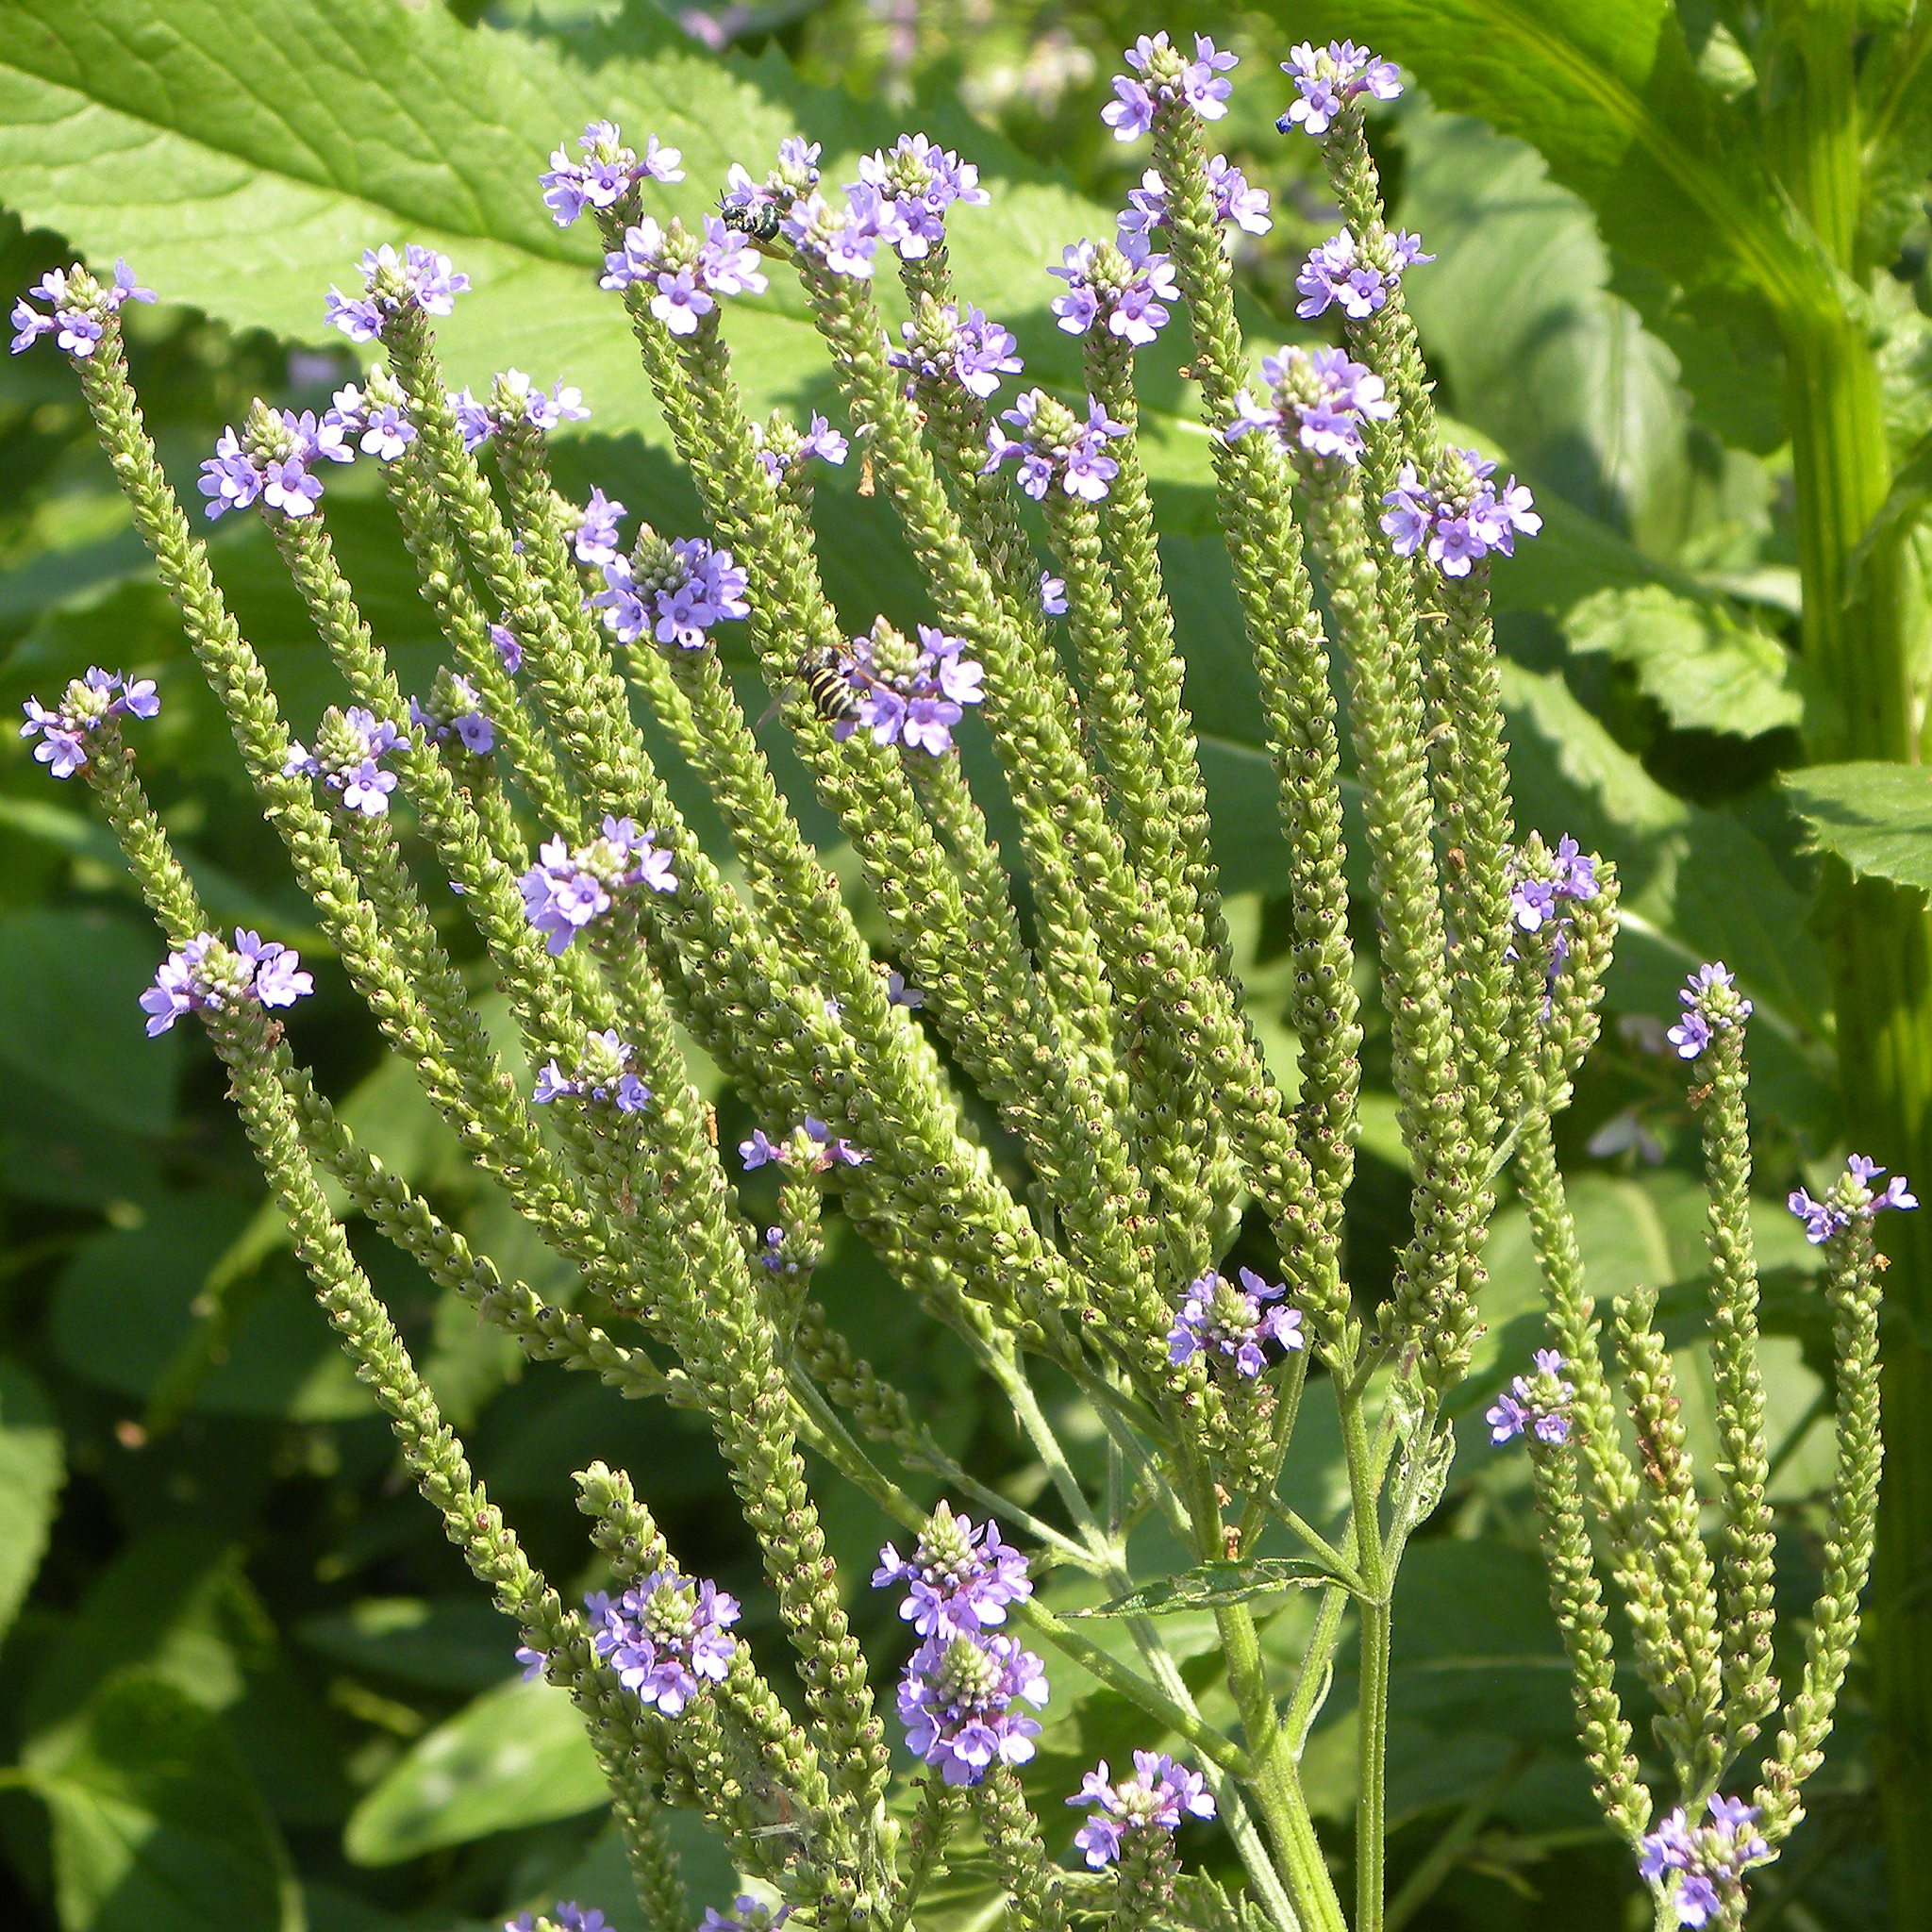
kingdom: Plantae
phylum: Tracheophyta
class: Magnoliopsida
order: Lamiales
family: Verbenaceae
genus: Verbena
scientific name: Verbena hastata
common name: American blue vervain
